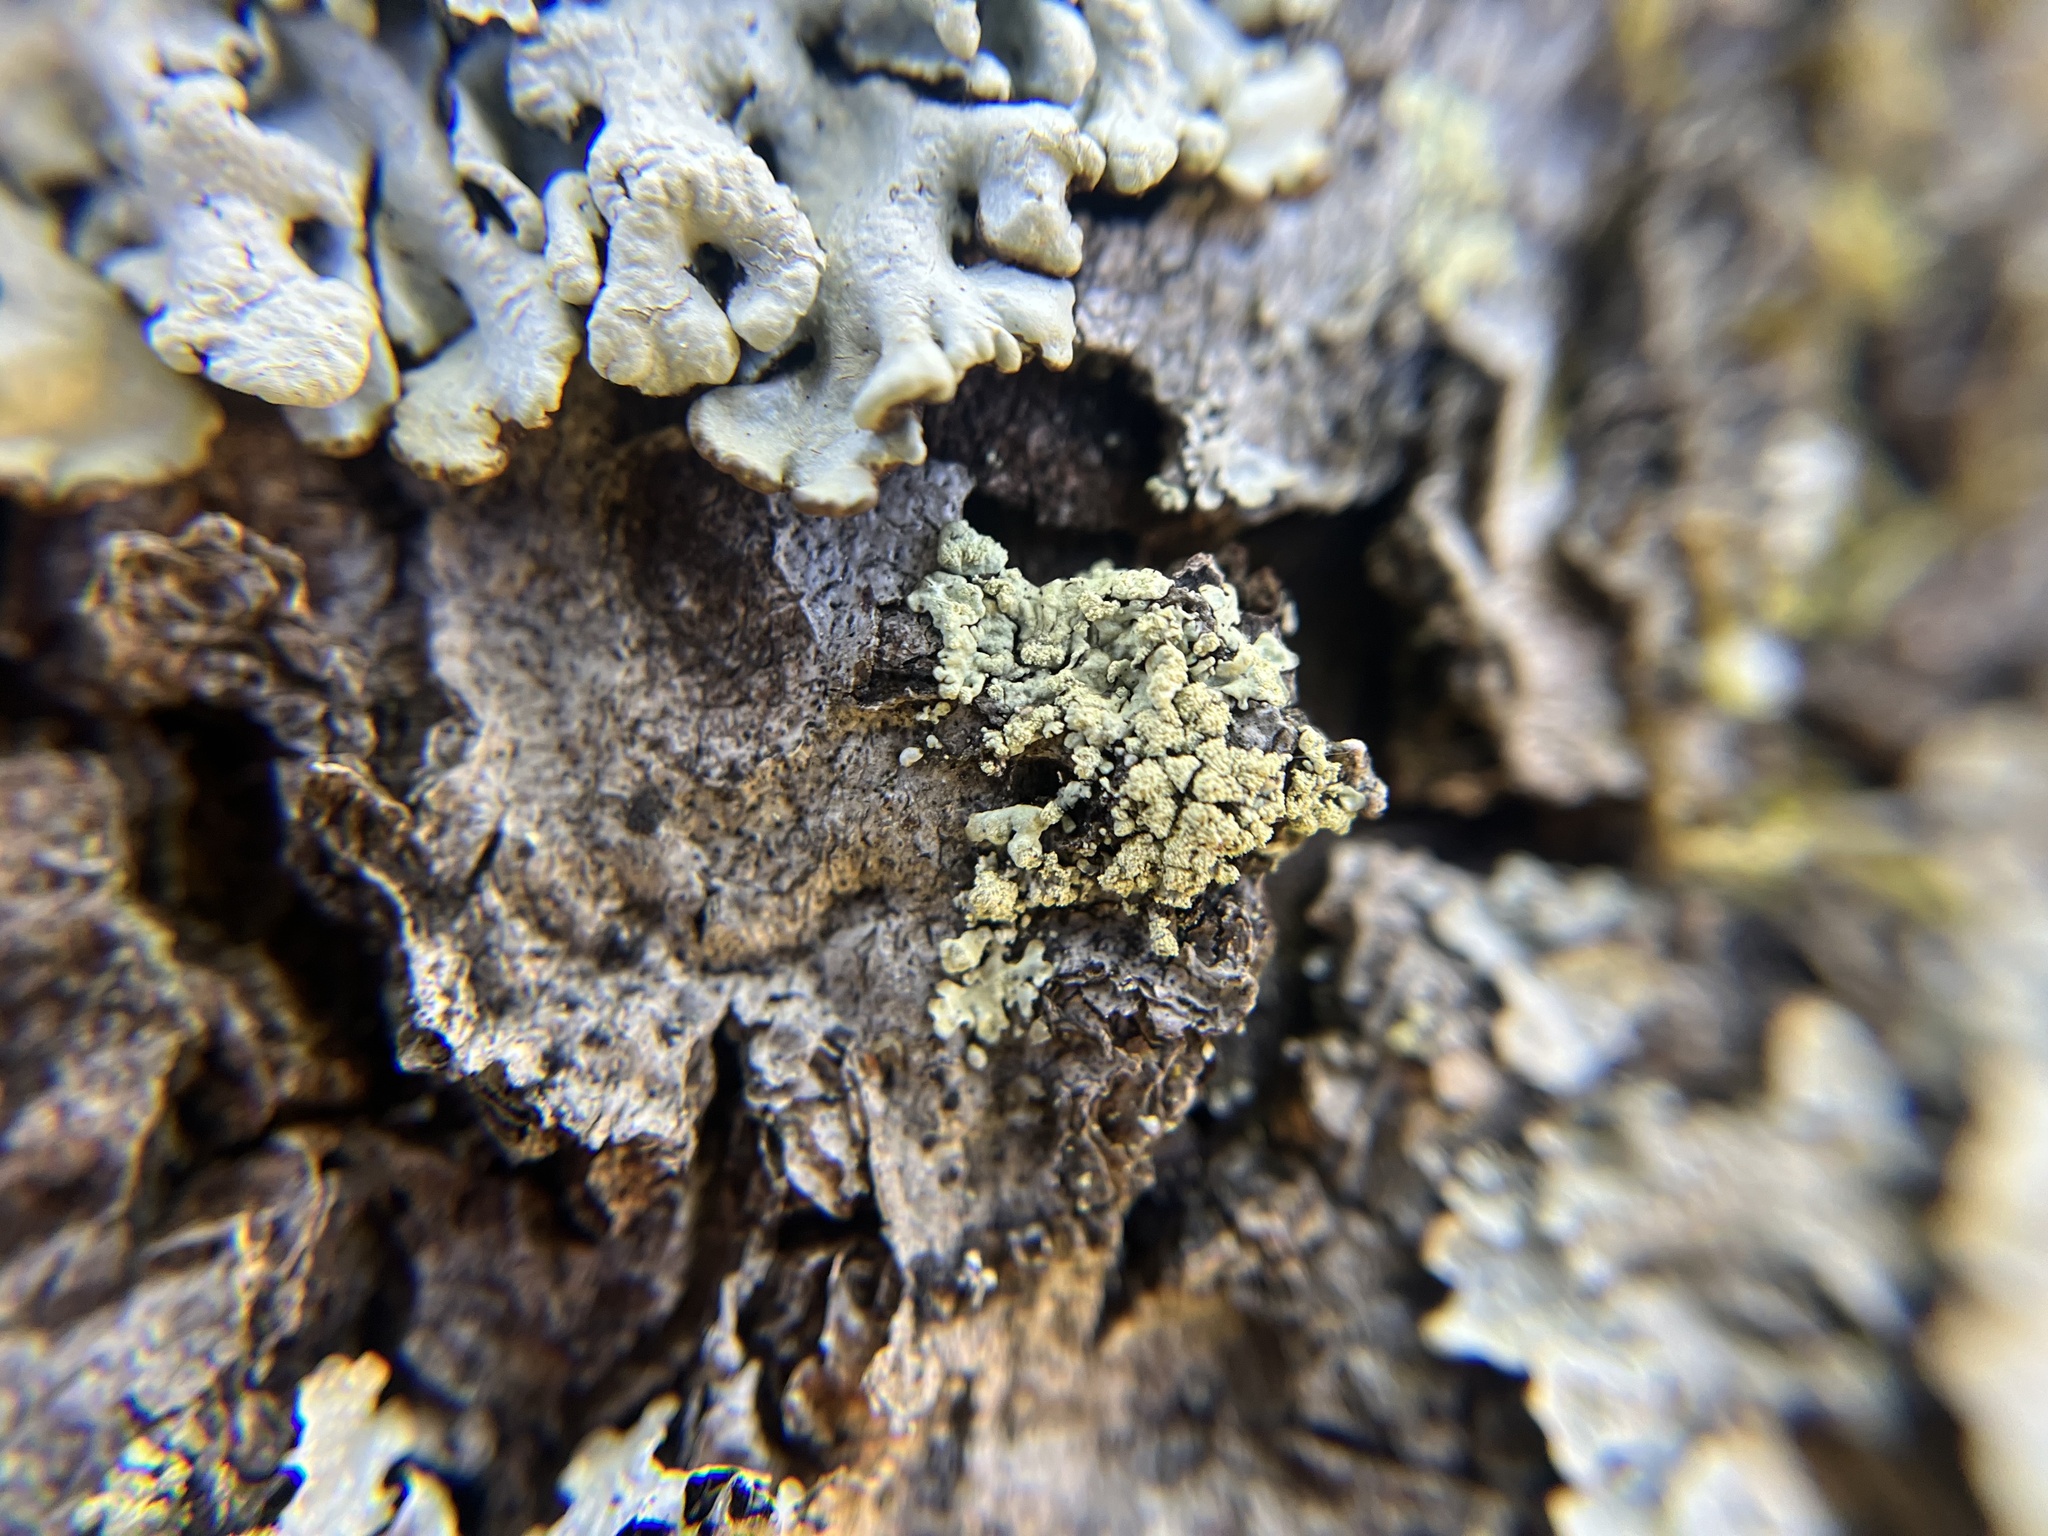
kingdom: Fungi
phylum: Ascomycota
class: Lecanoromycetes
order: Lecanorales
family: Parmeliaceae
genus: Parmeliopsis
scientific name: Parmeliopsis ambigua
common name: Green starburst lichen
